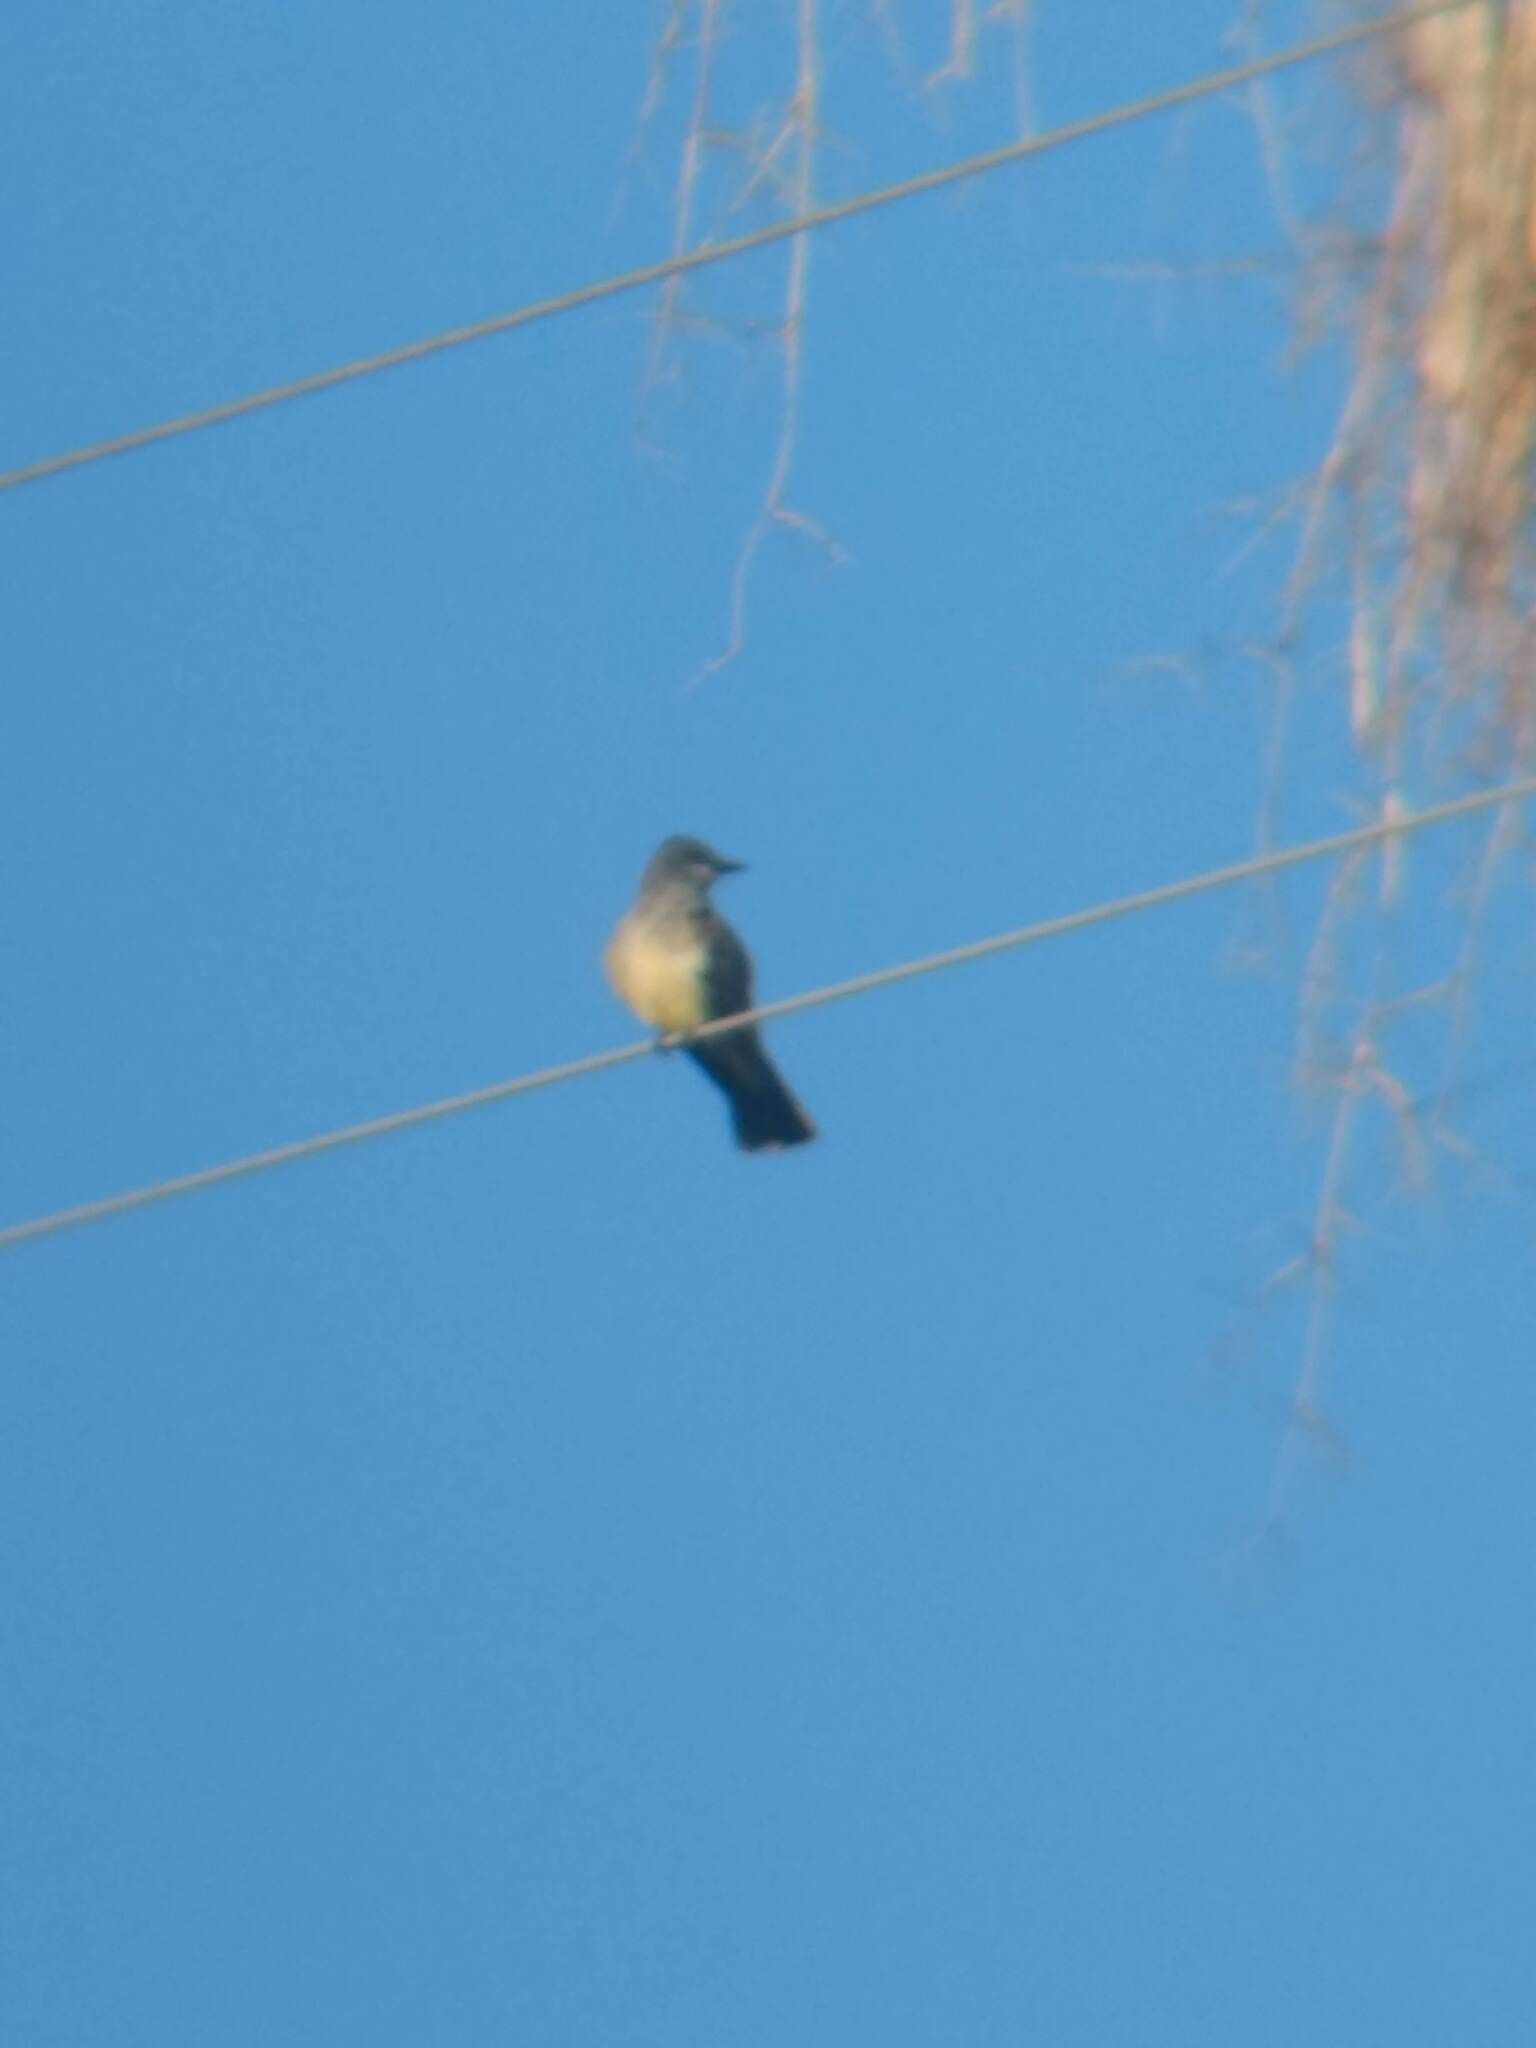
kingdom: Animalia
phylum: Chordata
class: Aves
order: Passeriformes
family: Tyrannidae
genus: Tyrannus
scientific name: Tyrannus vociferans
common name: Cassin's kingbird
